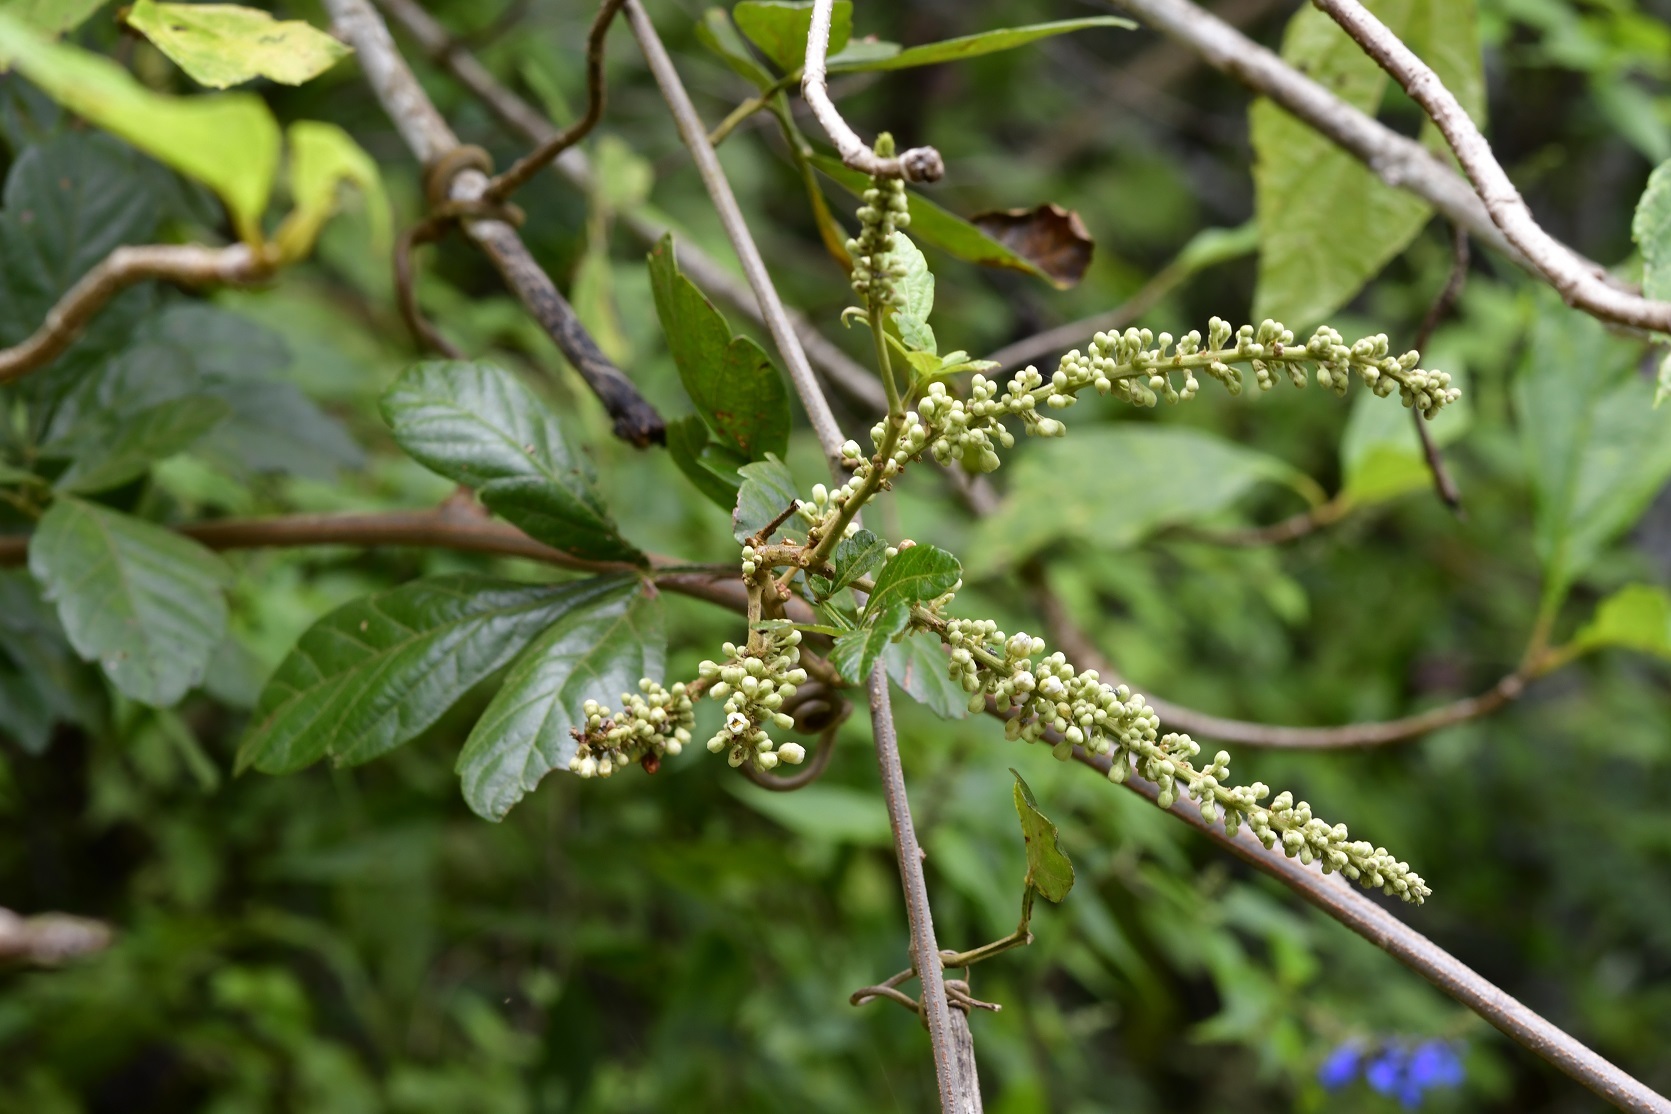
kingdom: Plantae
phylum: Tracheophyta
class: Magnoliopsida
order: Sapindales
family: Sapindaceae
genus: Paullinia
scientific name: Paullinia fuscescens
